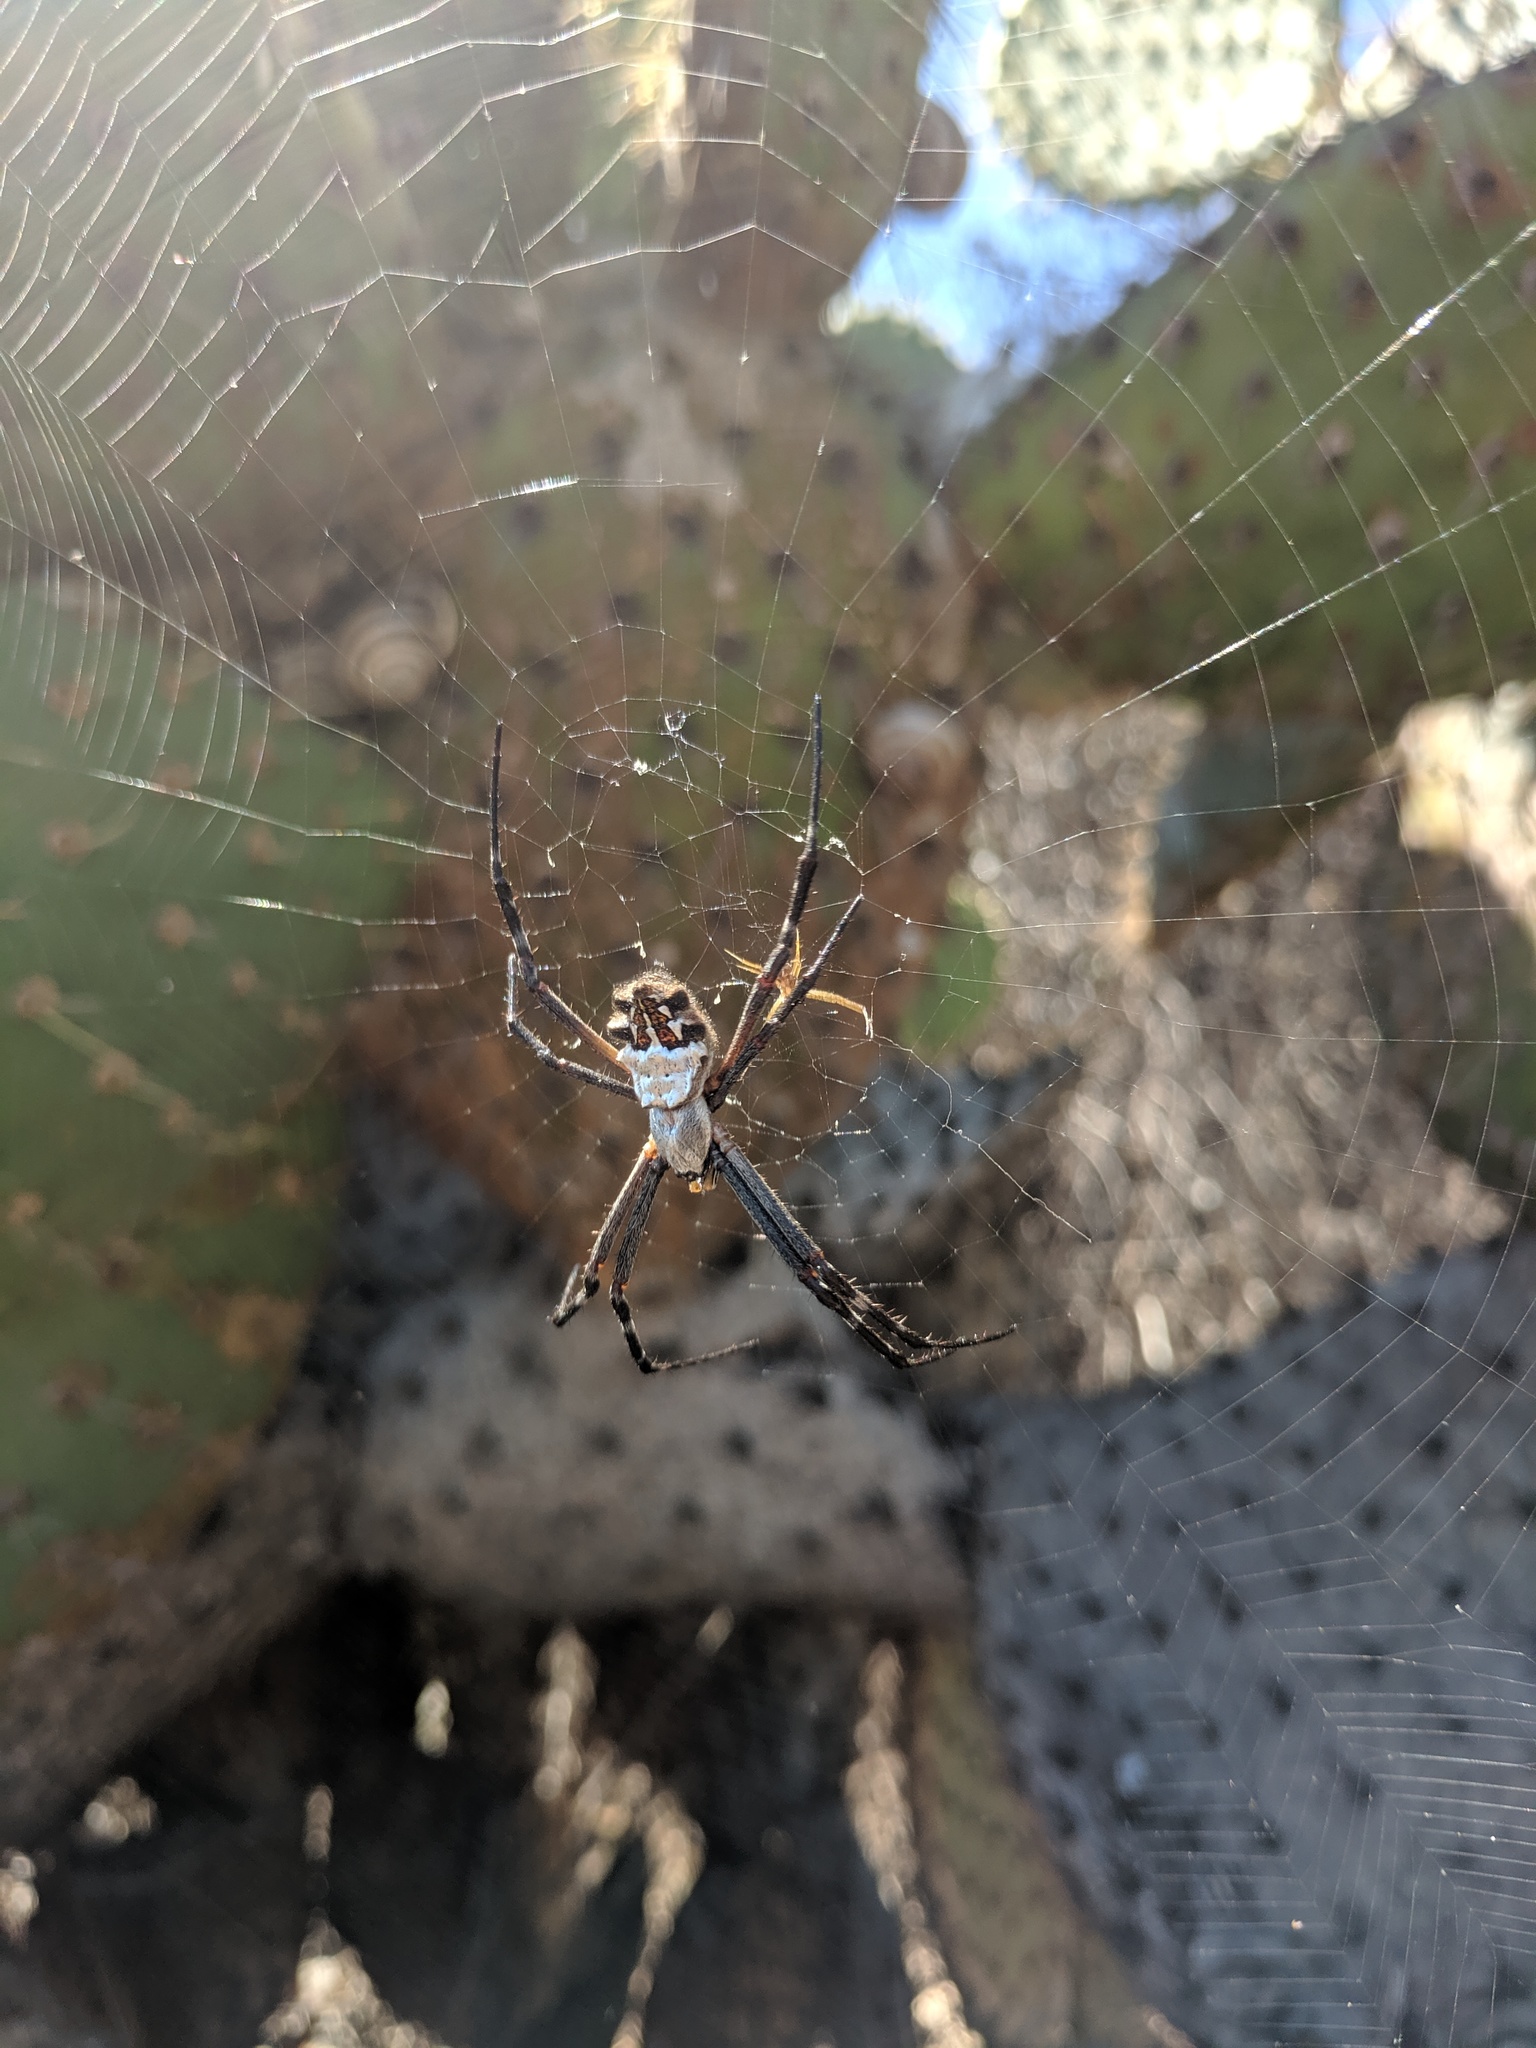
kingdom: Animalia
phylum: Arthropoda
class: Arachnida
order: Araneae
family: Araneidae
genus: Argiope
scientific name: Argiope argentata
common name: Orb weavers
